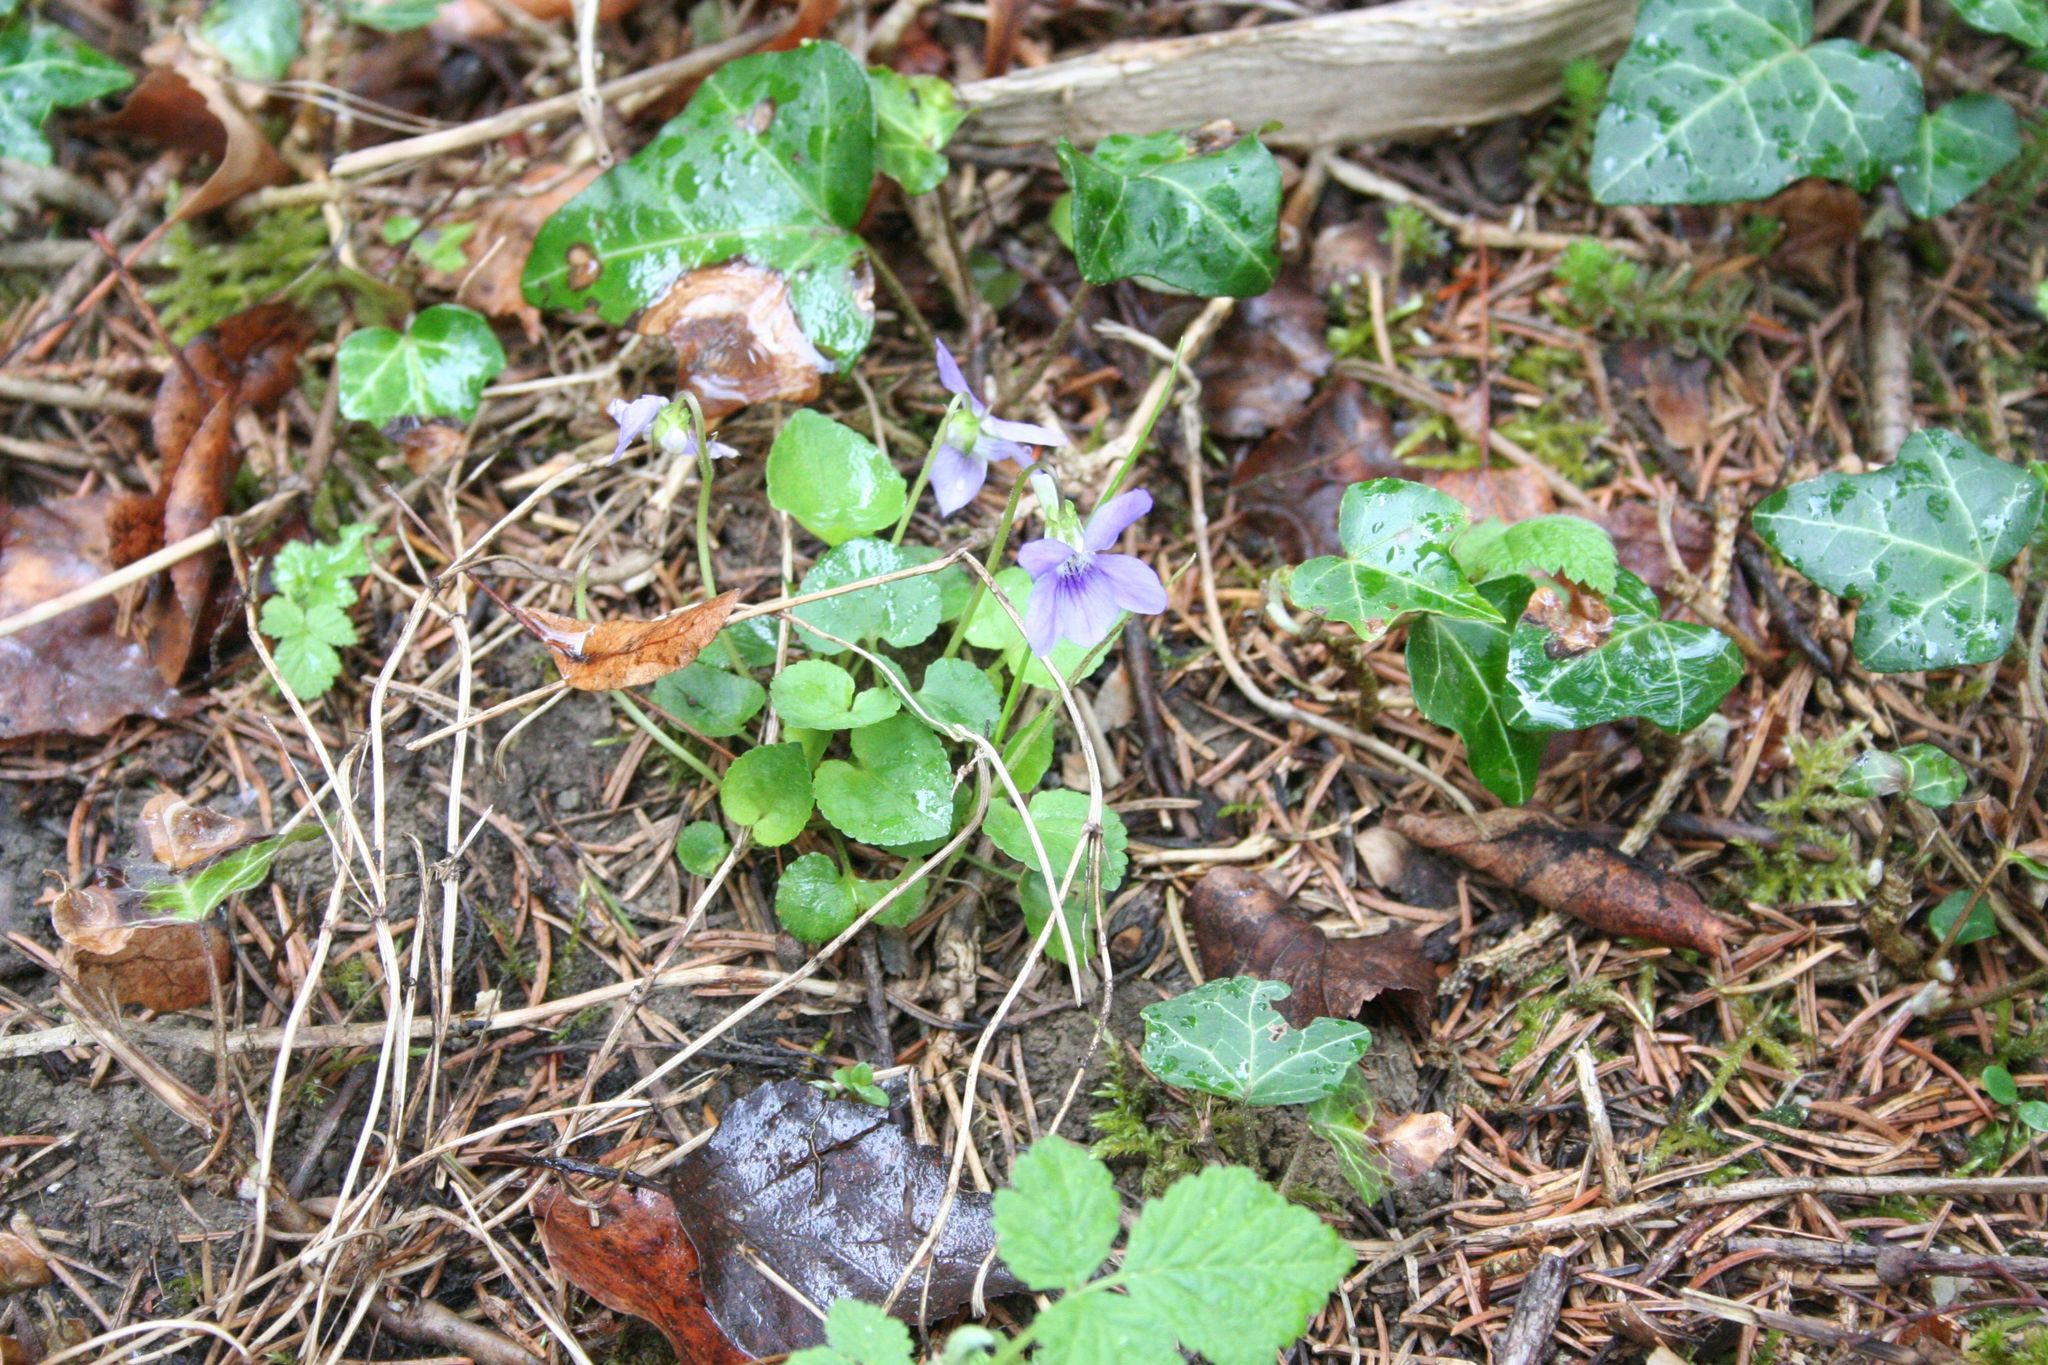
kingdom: Plantae
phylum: Tracheophyta
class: Magnoliopsida
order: Malpighiales
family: Violaceae
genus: Viola
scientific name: Viola riviniana
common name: Common dog-violet
